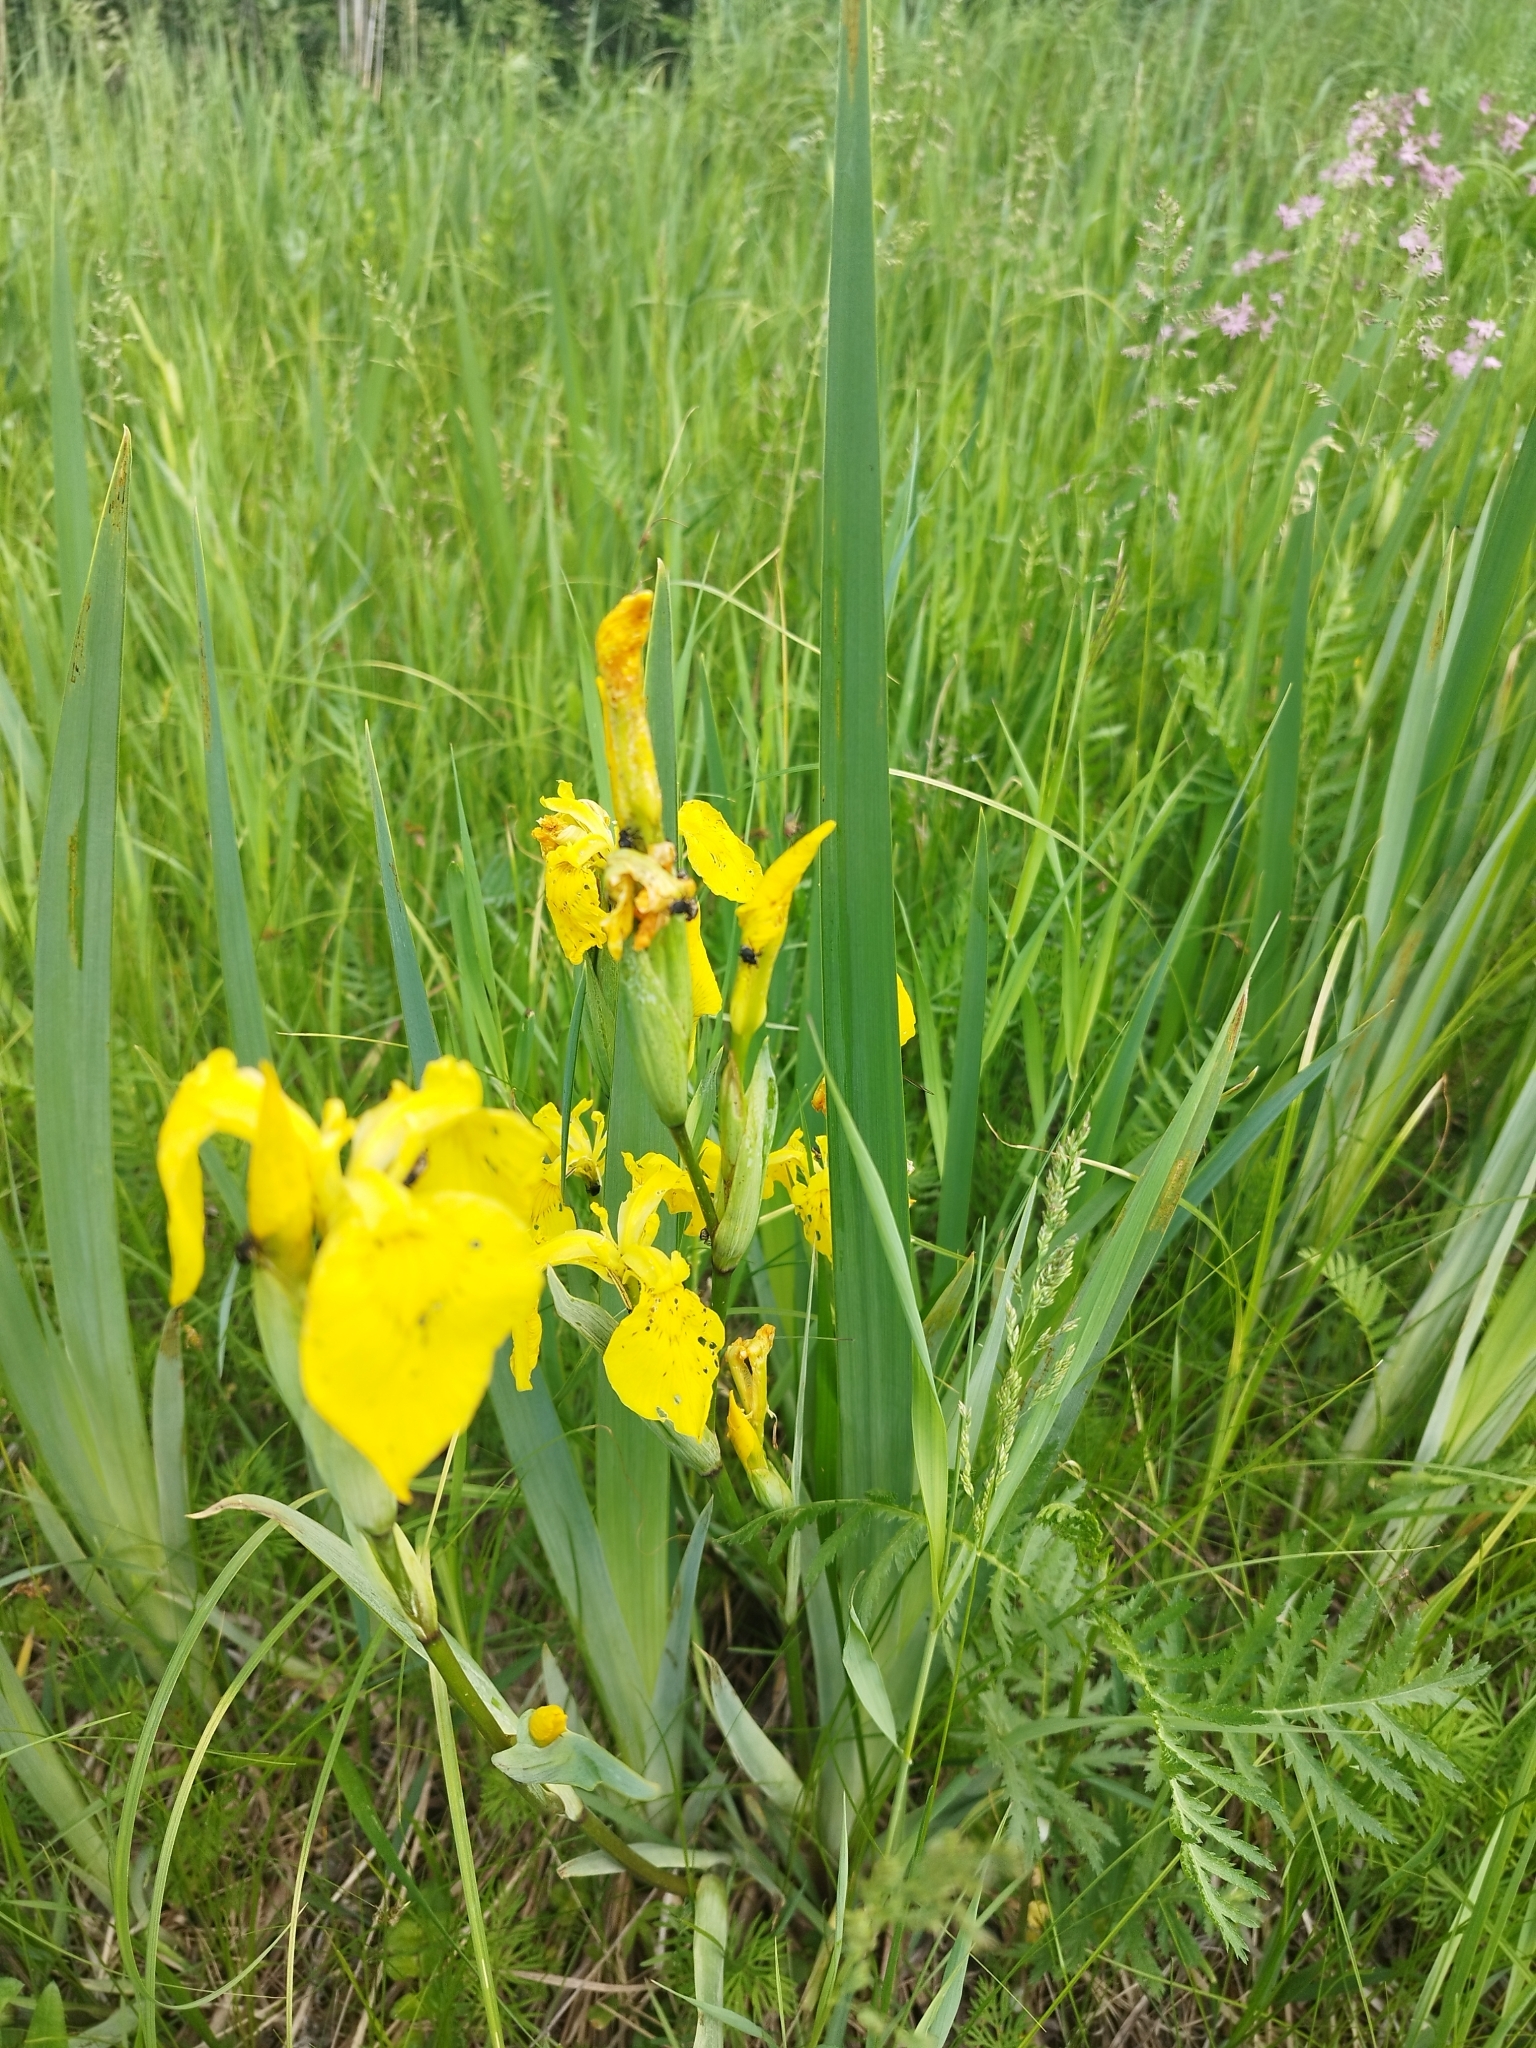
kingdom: Plantae
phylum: Tracheophyta
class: Liliopsida
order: Asparagales
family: Iridaceae
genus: Iris
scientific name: Iris pseudacorus
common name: Yellow flag
